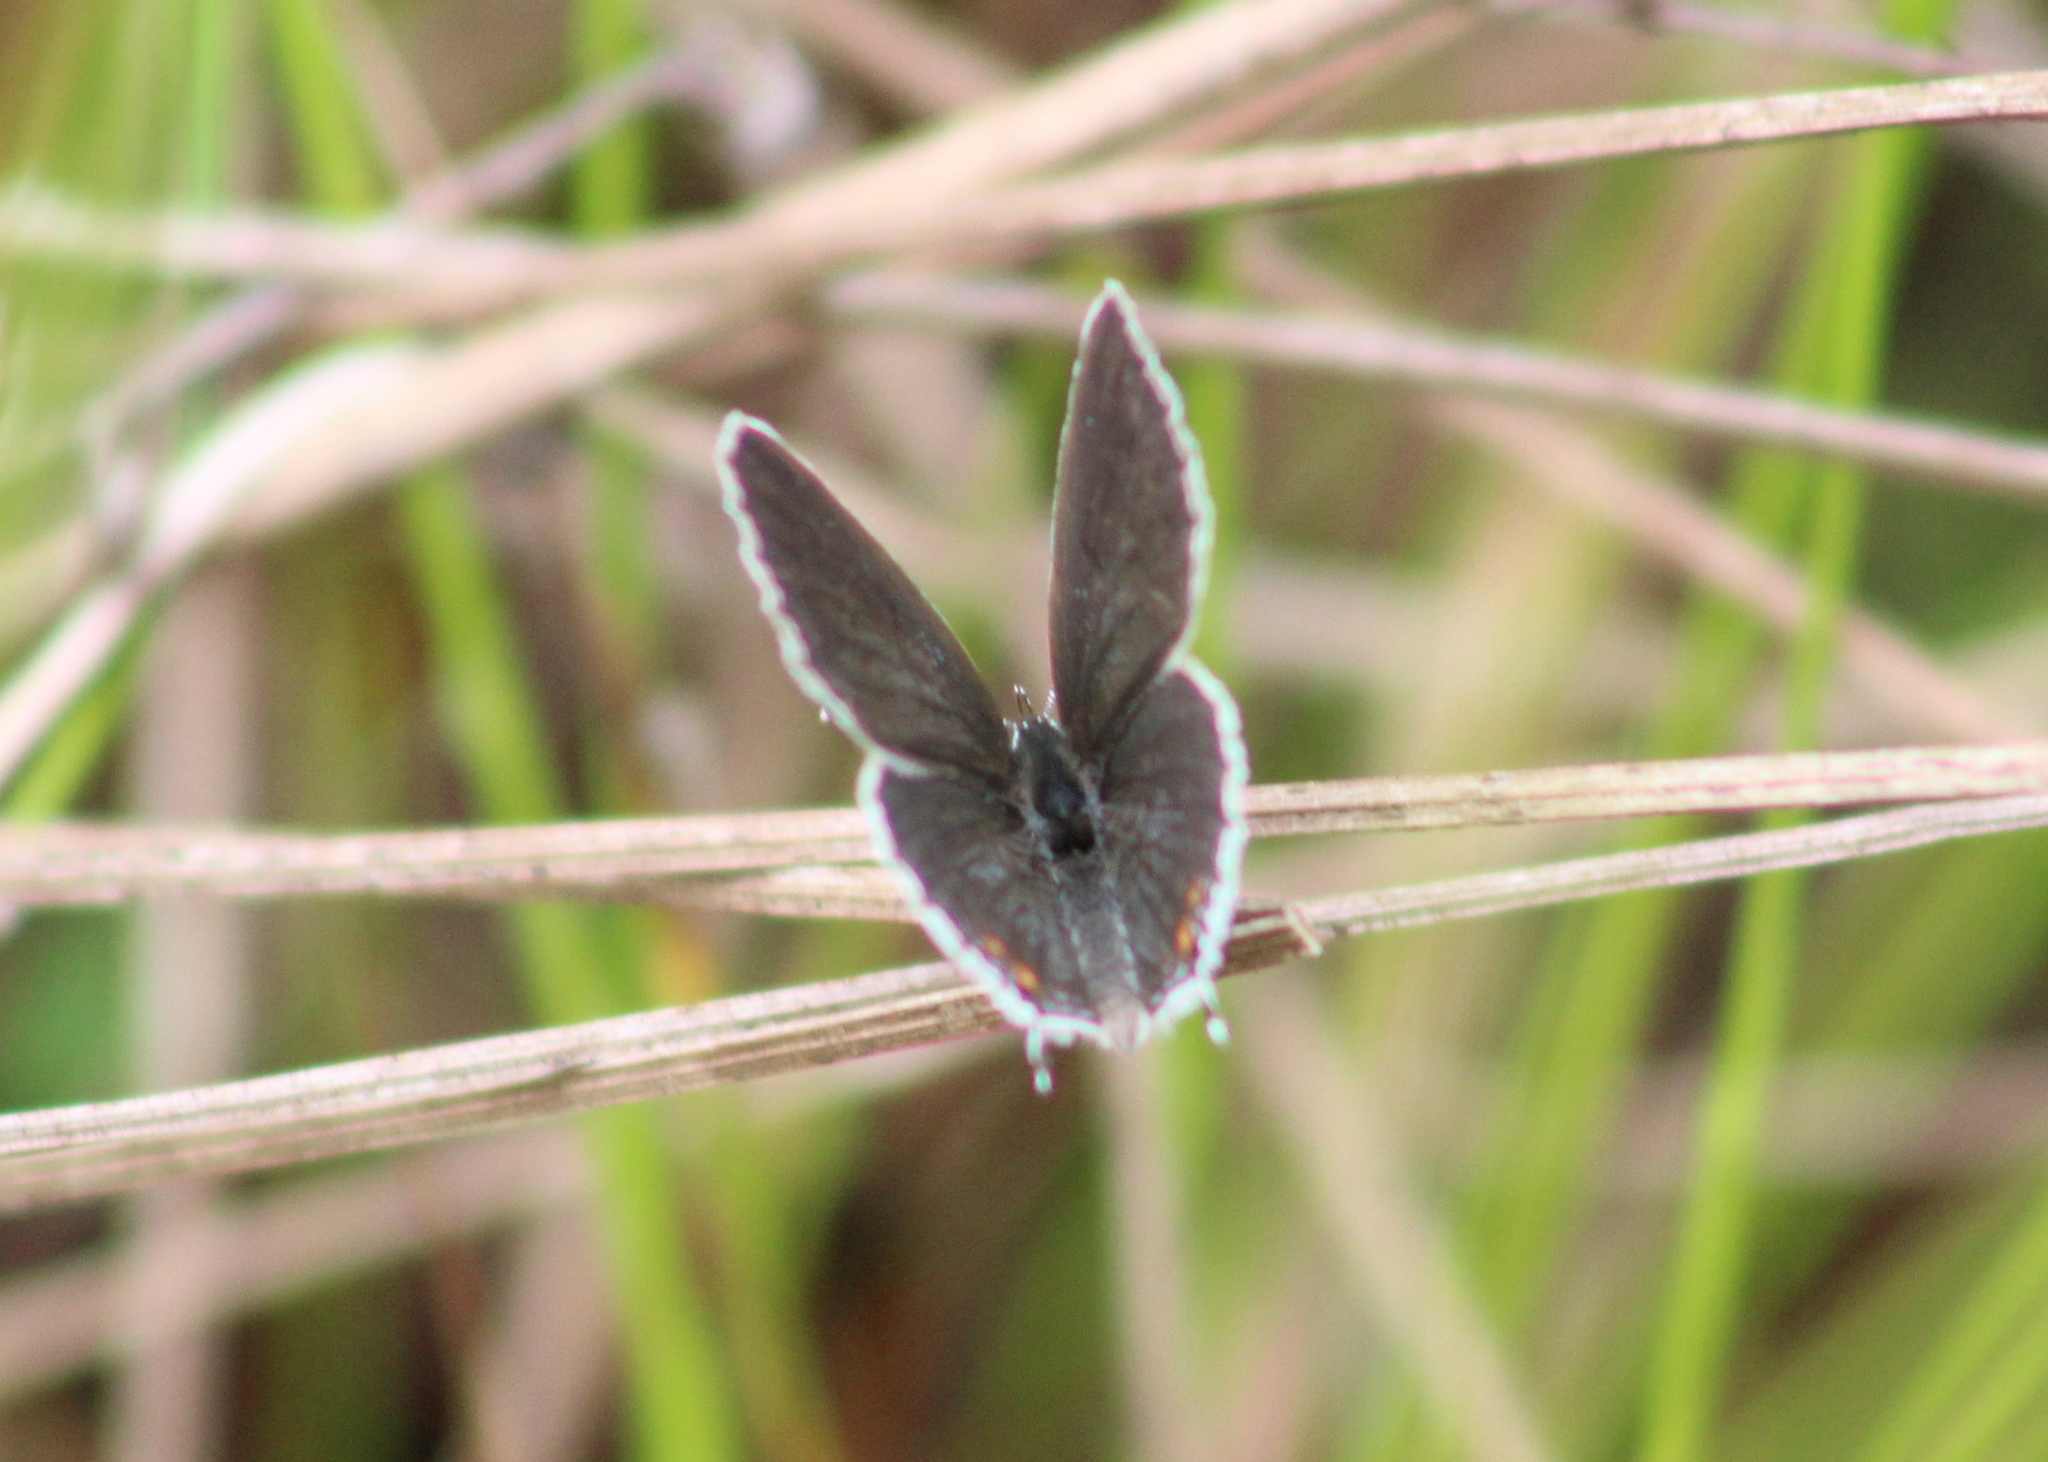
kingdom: Animalia
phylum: Arthropoda
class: Insecta
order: Lepidoptera
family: Lycaenidae
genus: Elkalyce
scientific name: Elkalyce comyntas
